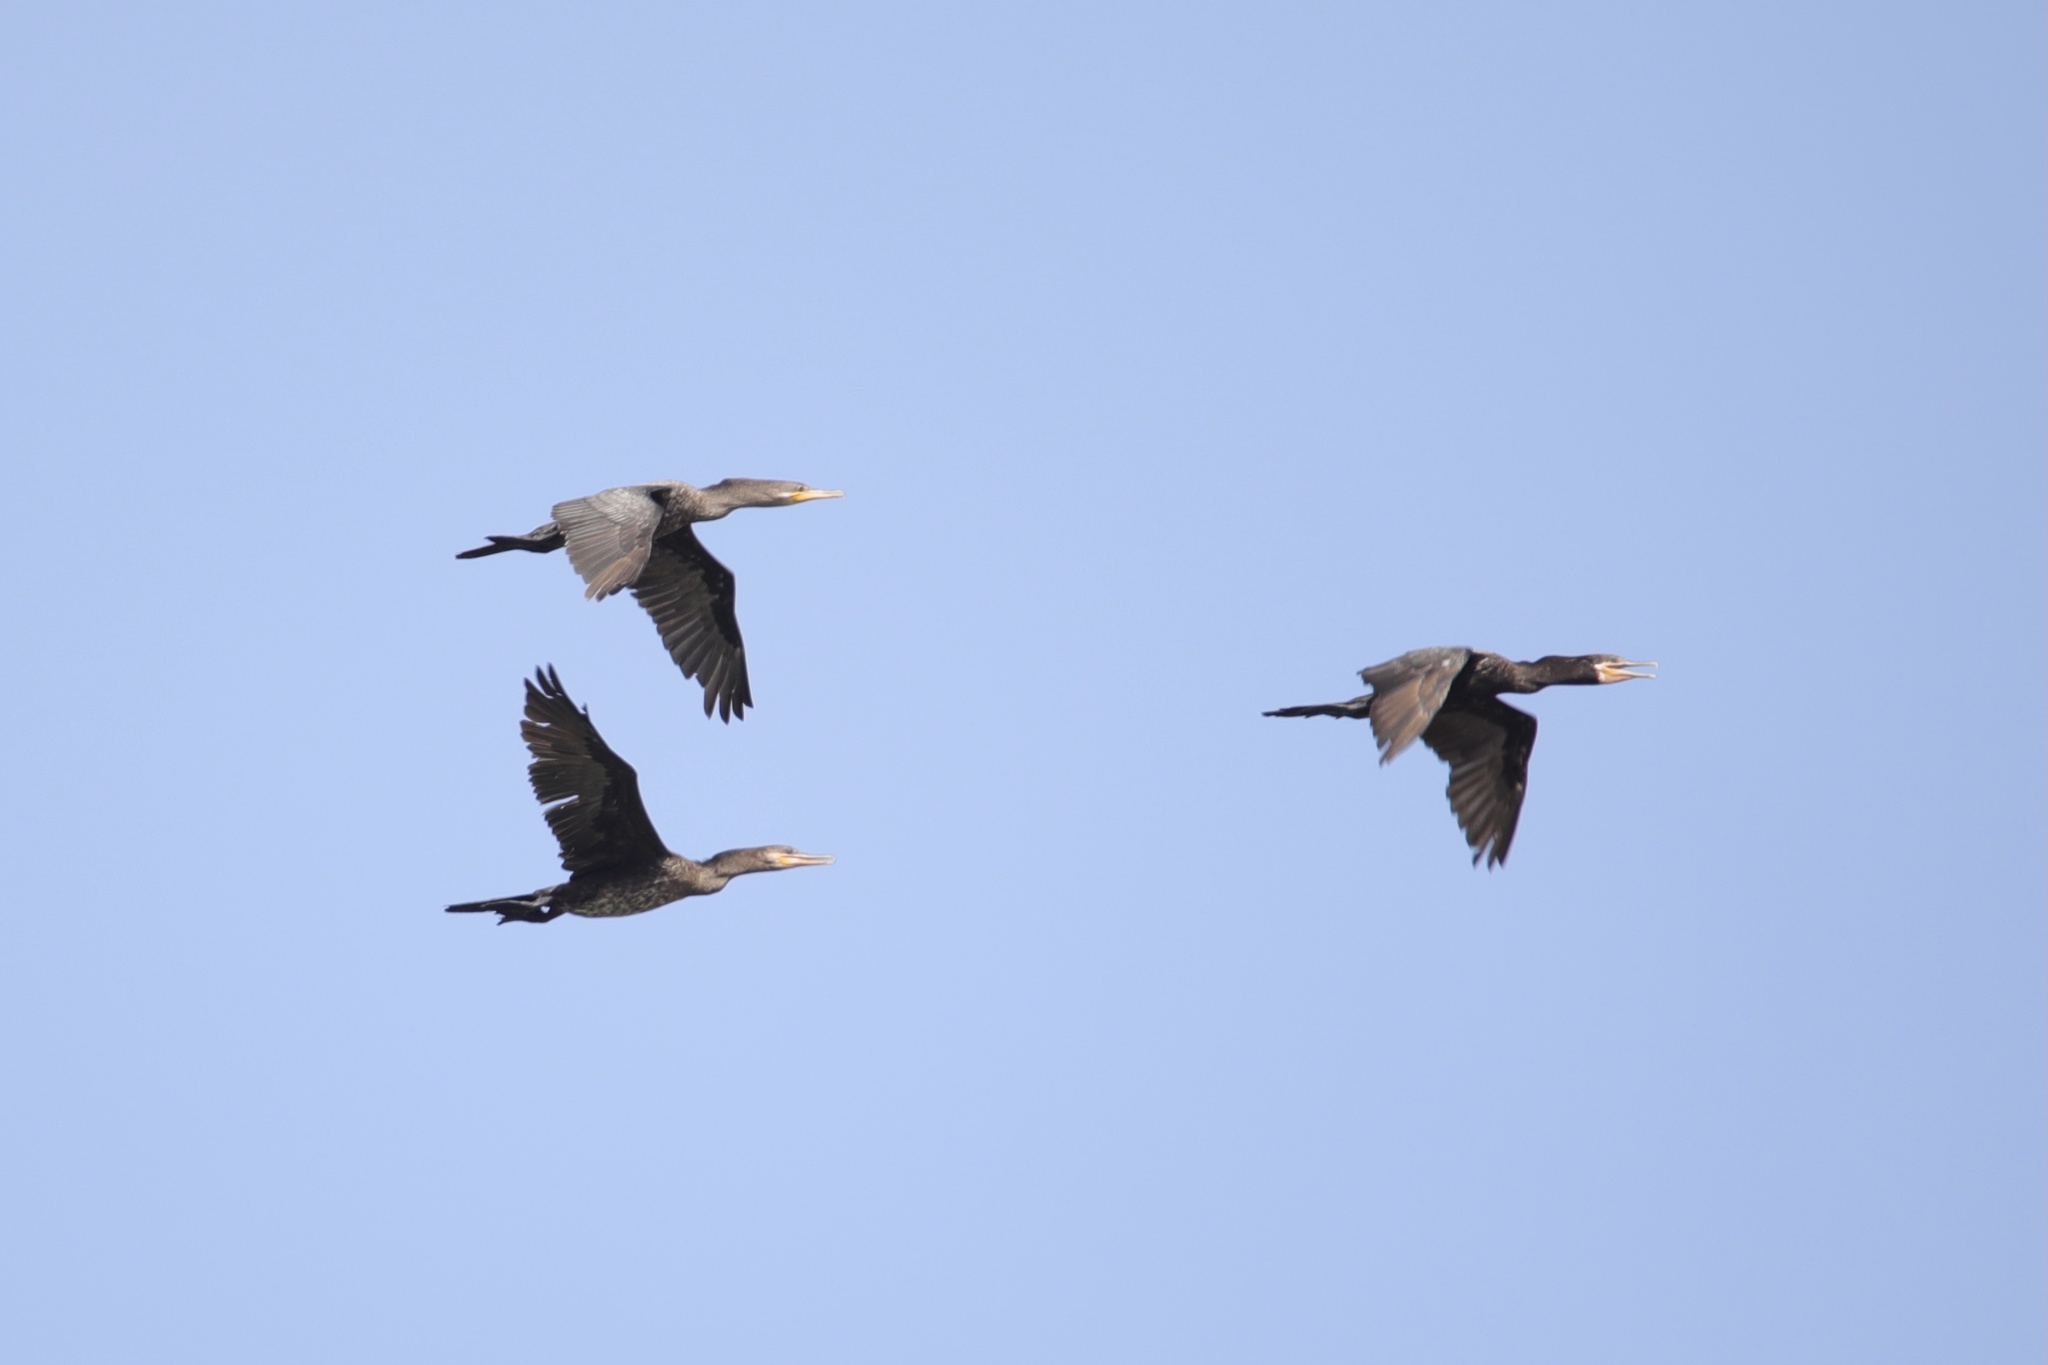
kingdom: Animalia
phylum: Chordata
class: Aves
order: Suliformes
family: Phalacrocoracidae
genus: Phalacrocorax
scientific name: Phalacrocorax brasilianus
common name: Neotropic cormorant
